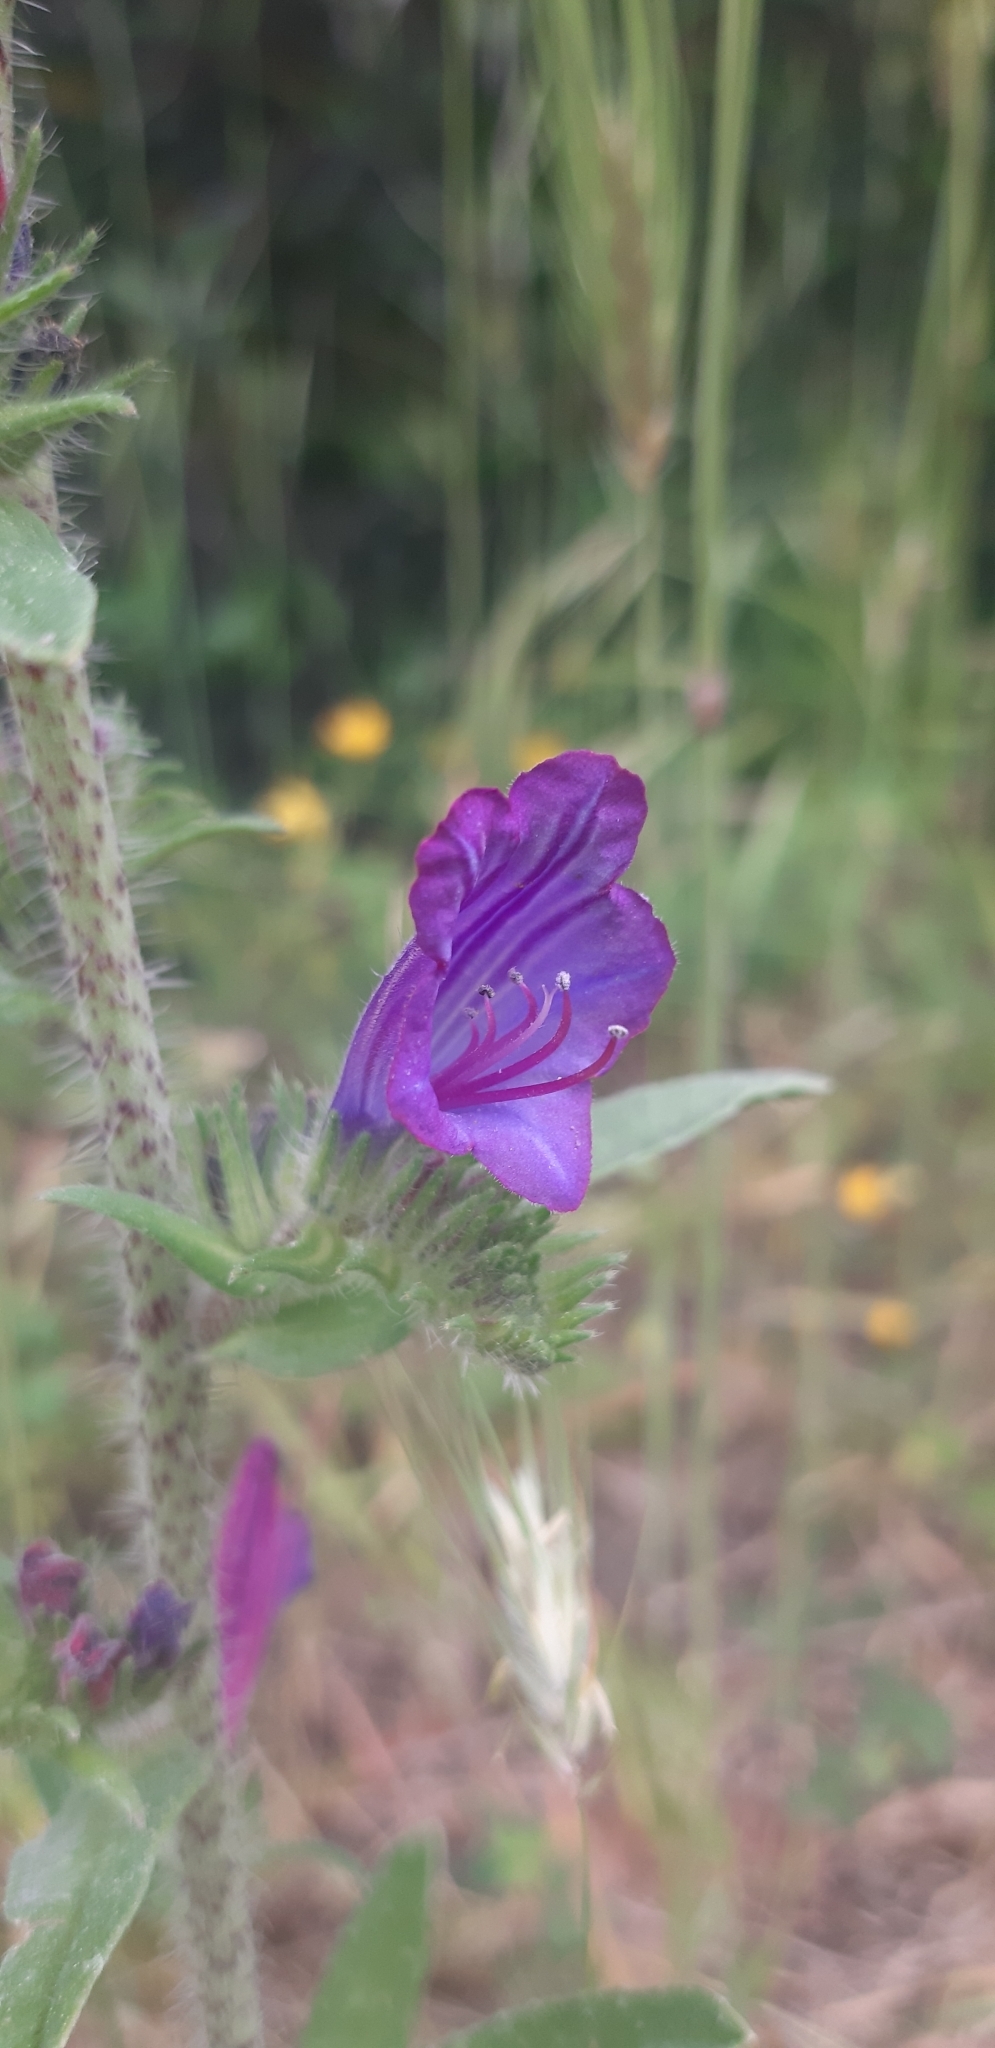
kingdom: Plantae
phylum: Tracheophyta
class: Magnoliopsida
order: Boraginales
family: Boraginaceae
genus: Echium
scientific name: Echium vulgare
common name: Common viper's bugloss
